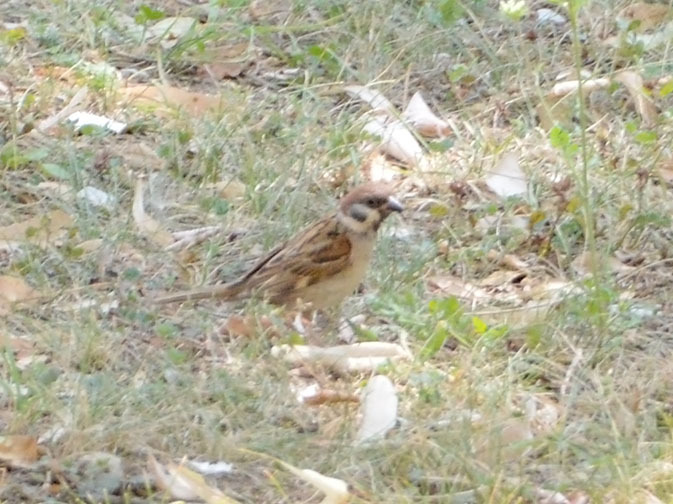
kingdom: Animalia
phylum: Chordata
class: Aves
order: Passeriformes
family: Passeridae
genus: Passer
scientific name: Passer montanus
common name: Eurasian tree sparrow
